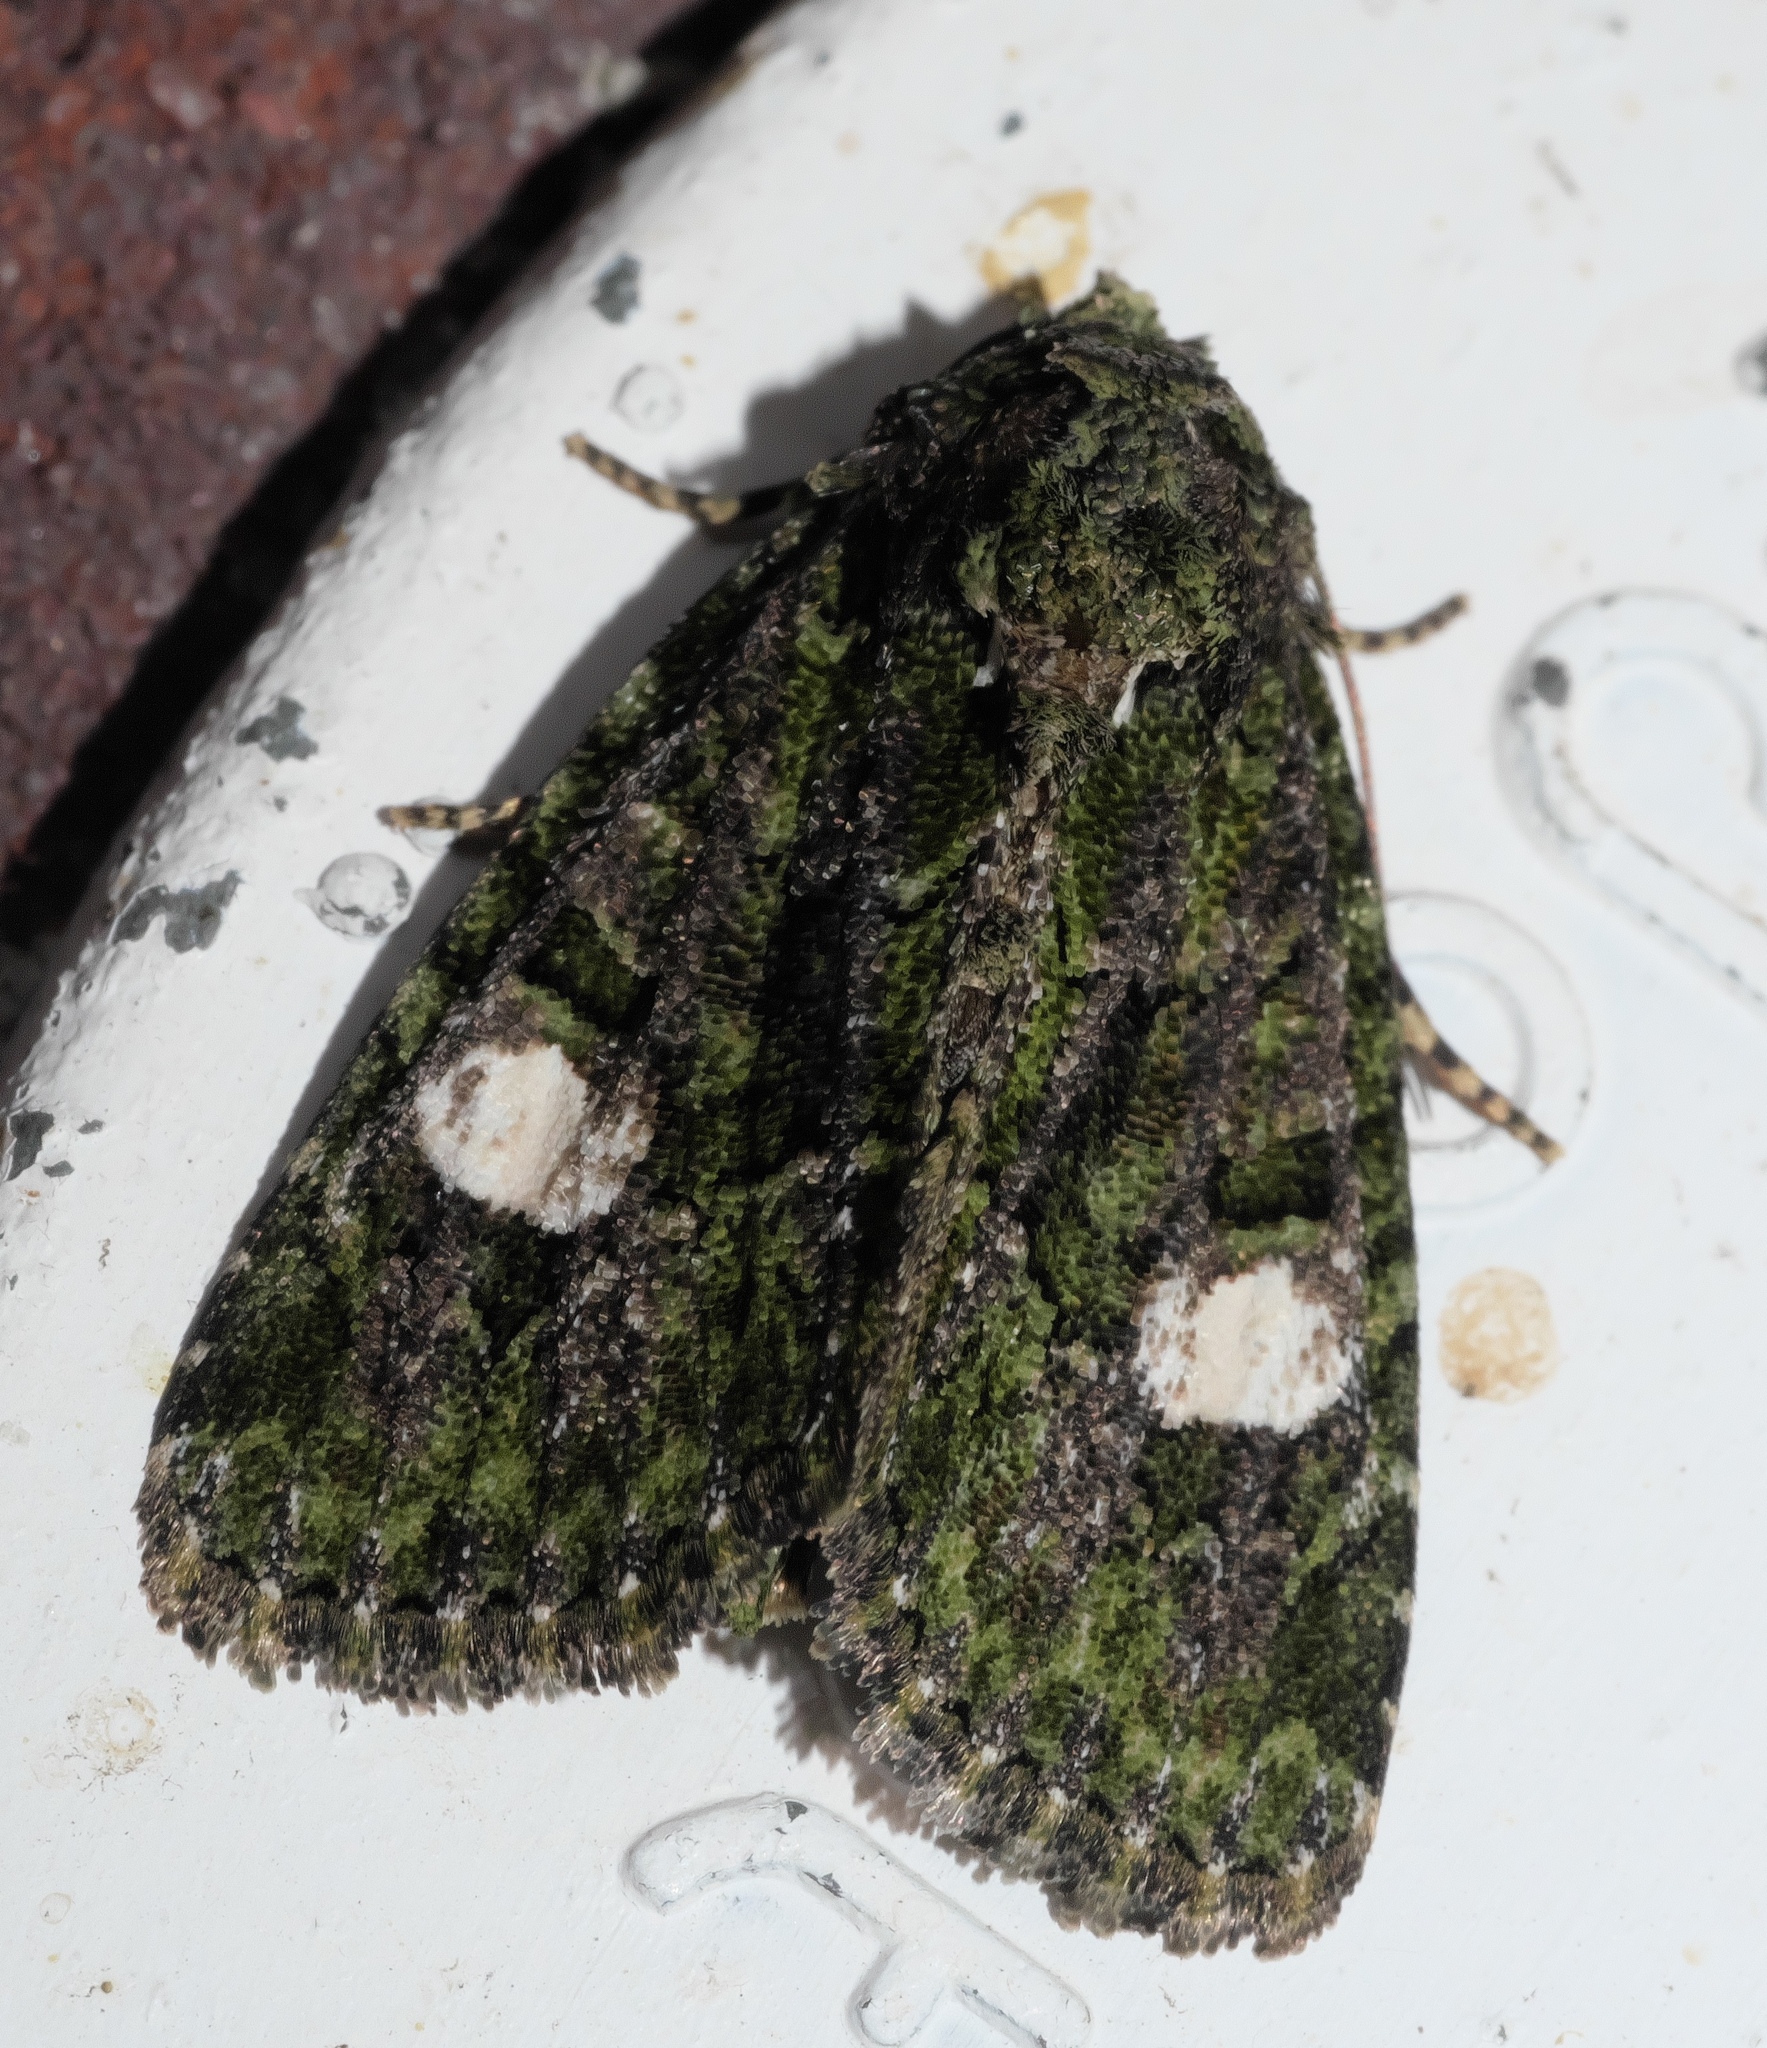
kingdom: Animalia
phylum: Arthropoda
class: Insecta
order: Lepidoptera
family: Noctuidae
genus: Phosphila
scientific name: Phosphila miselioides
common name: Spotted phosphila moth
